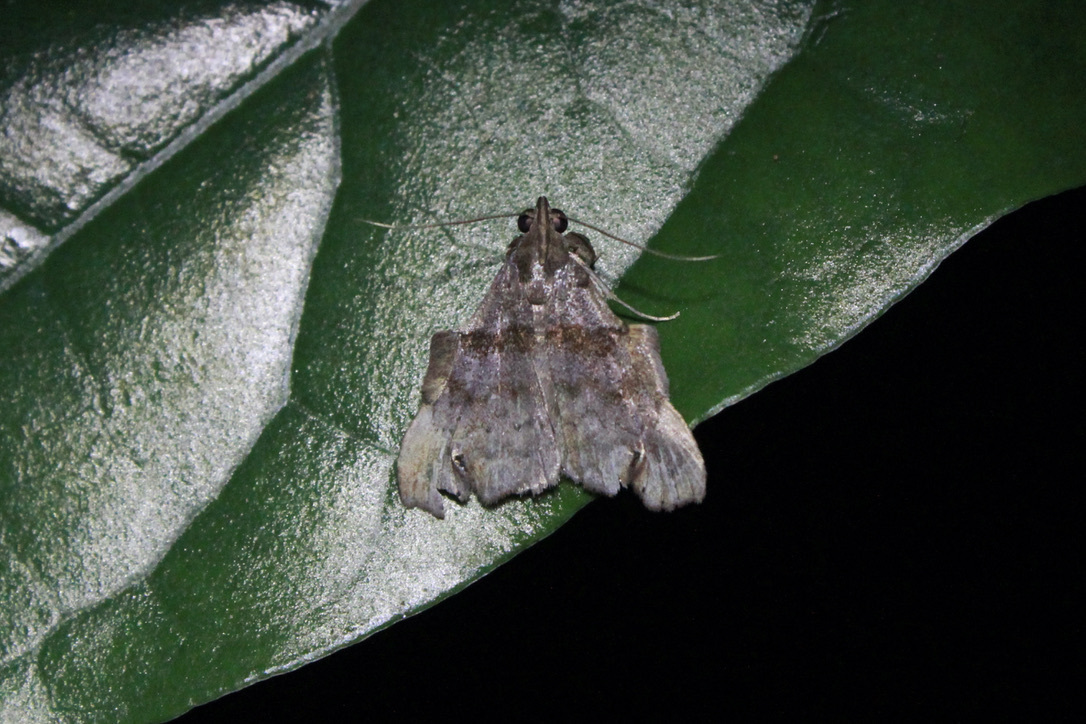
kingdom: Animalia
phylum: Arthropoda
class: Insecta
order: Lepidoptera
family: Erebidae
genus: Lascoria
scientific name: Lascoria orneodalis
